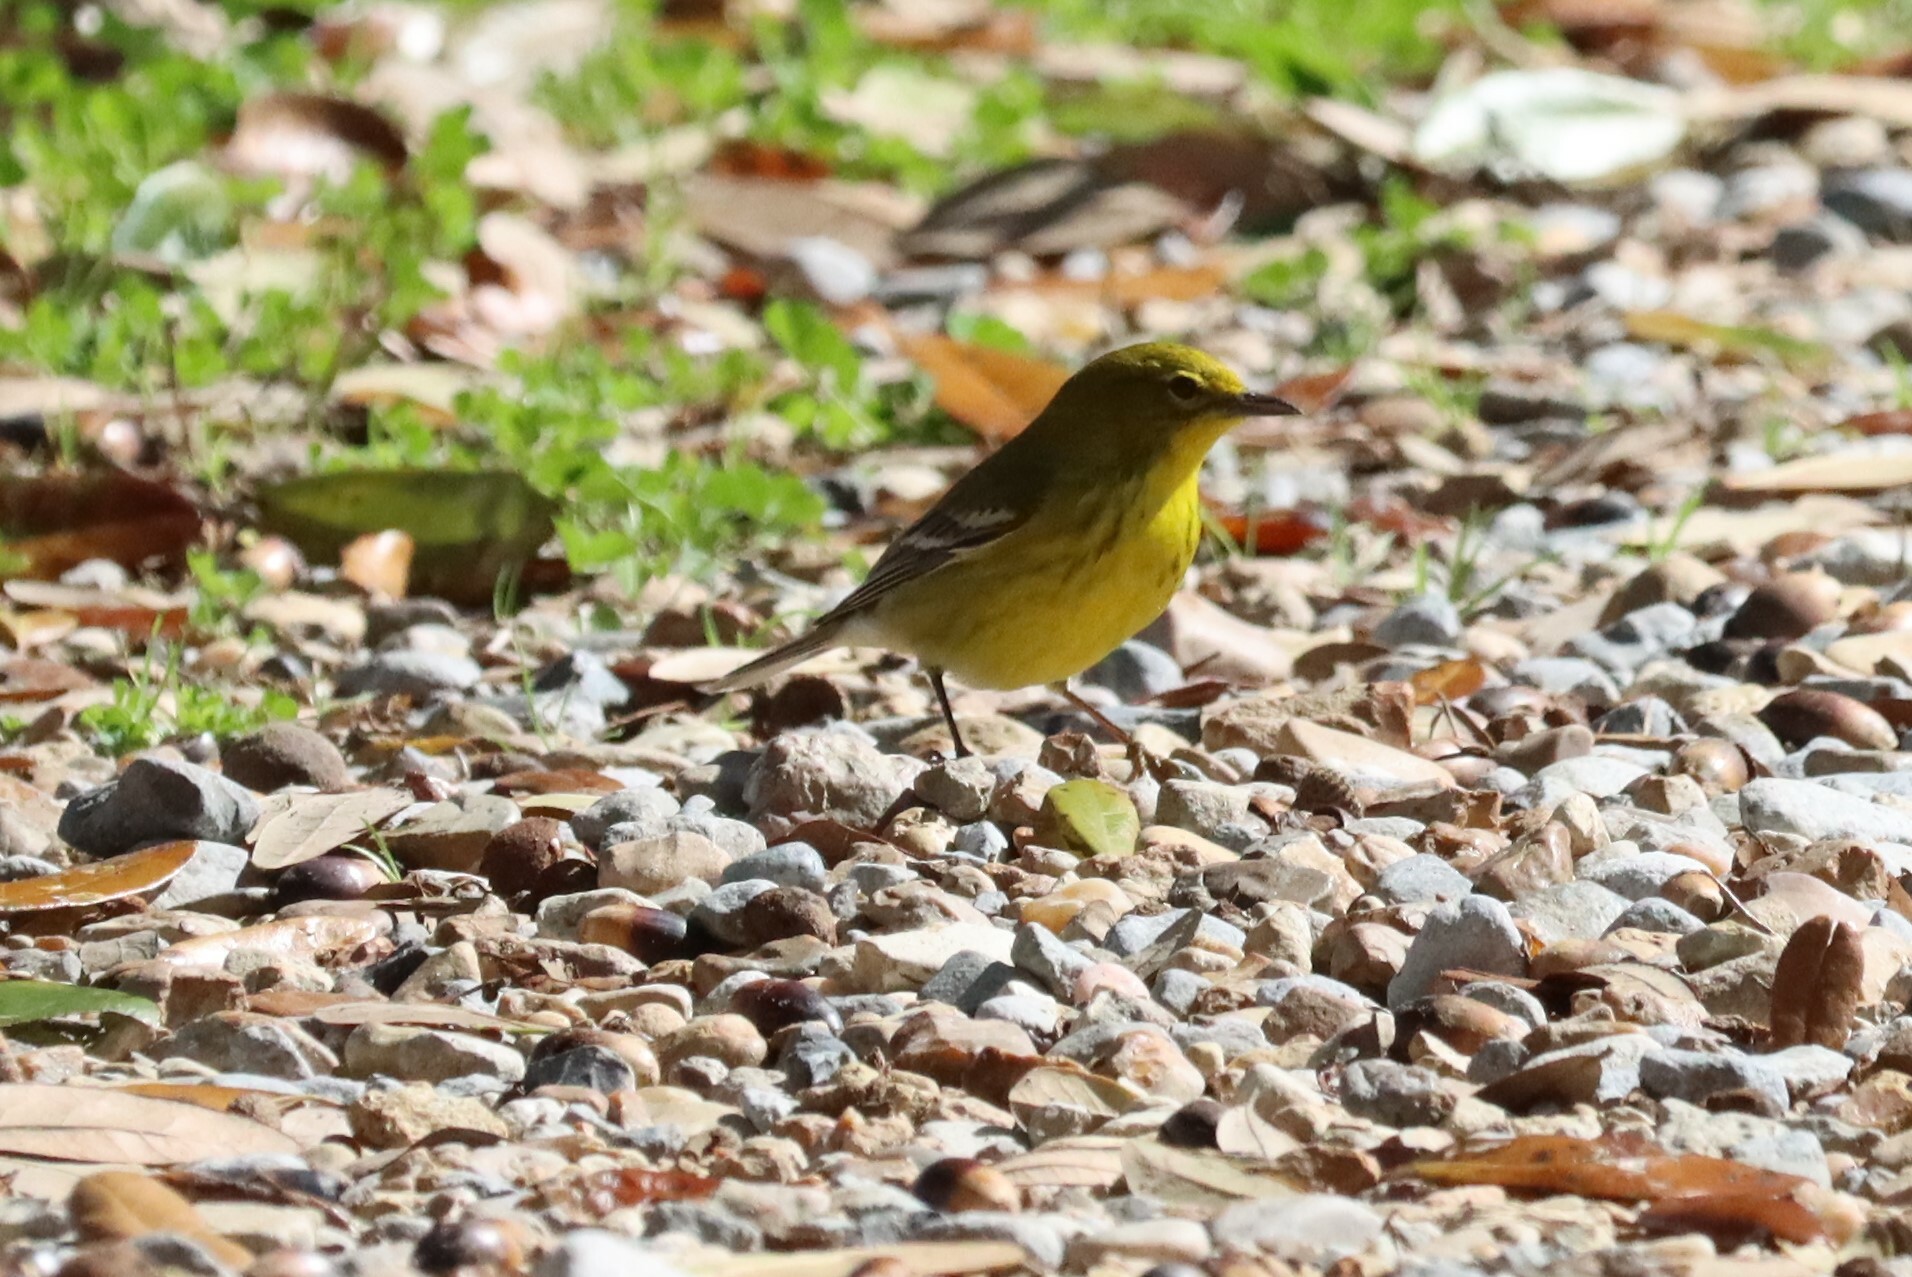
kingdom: Animalia
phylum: Chordata
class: Aves
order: Passeriformes
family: Parulidae
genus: Setophaga
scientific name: Setophaga pinus
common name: Pine warbler
